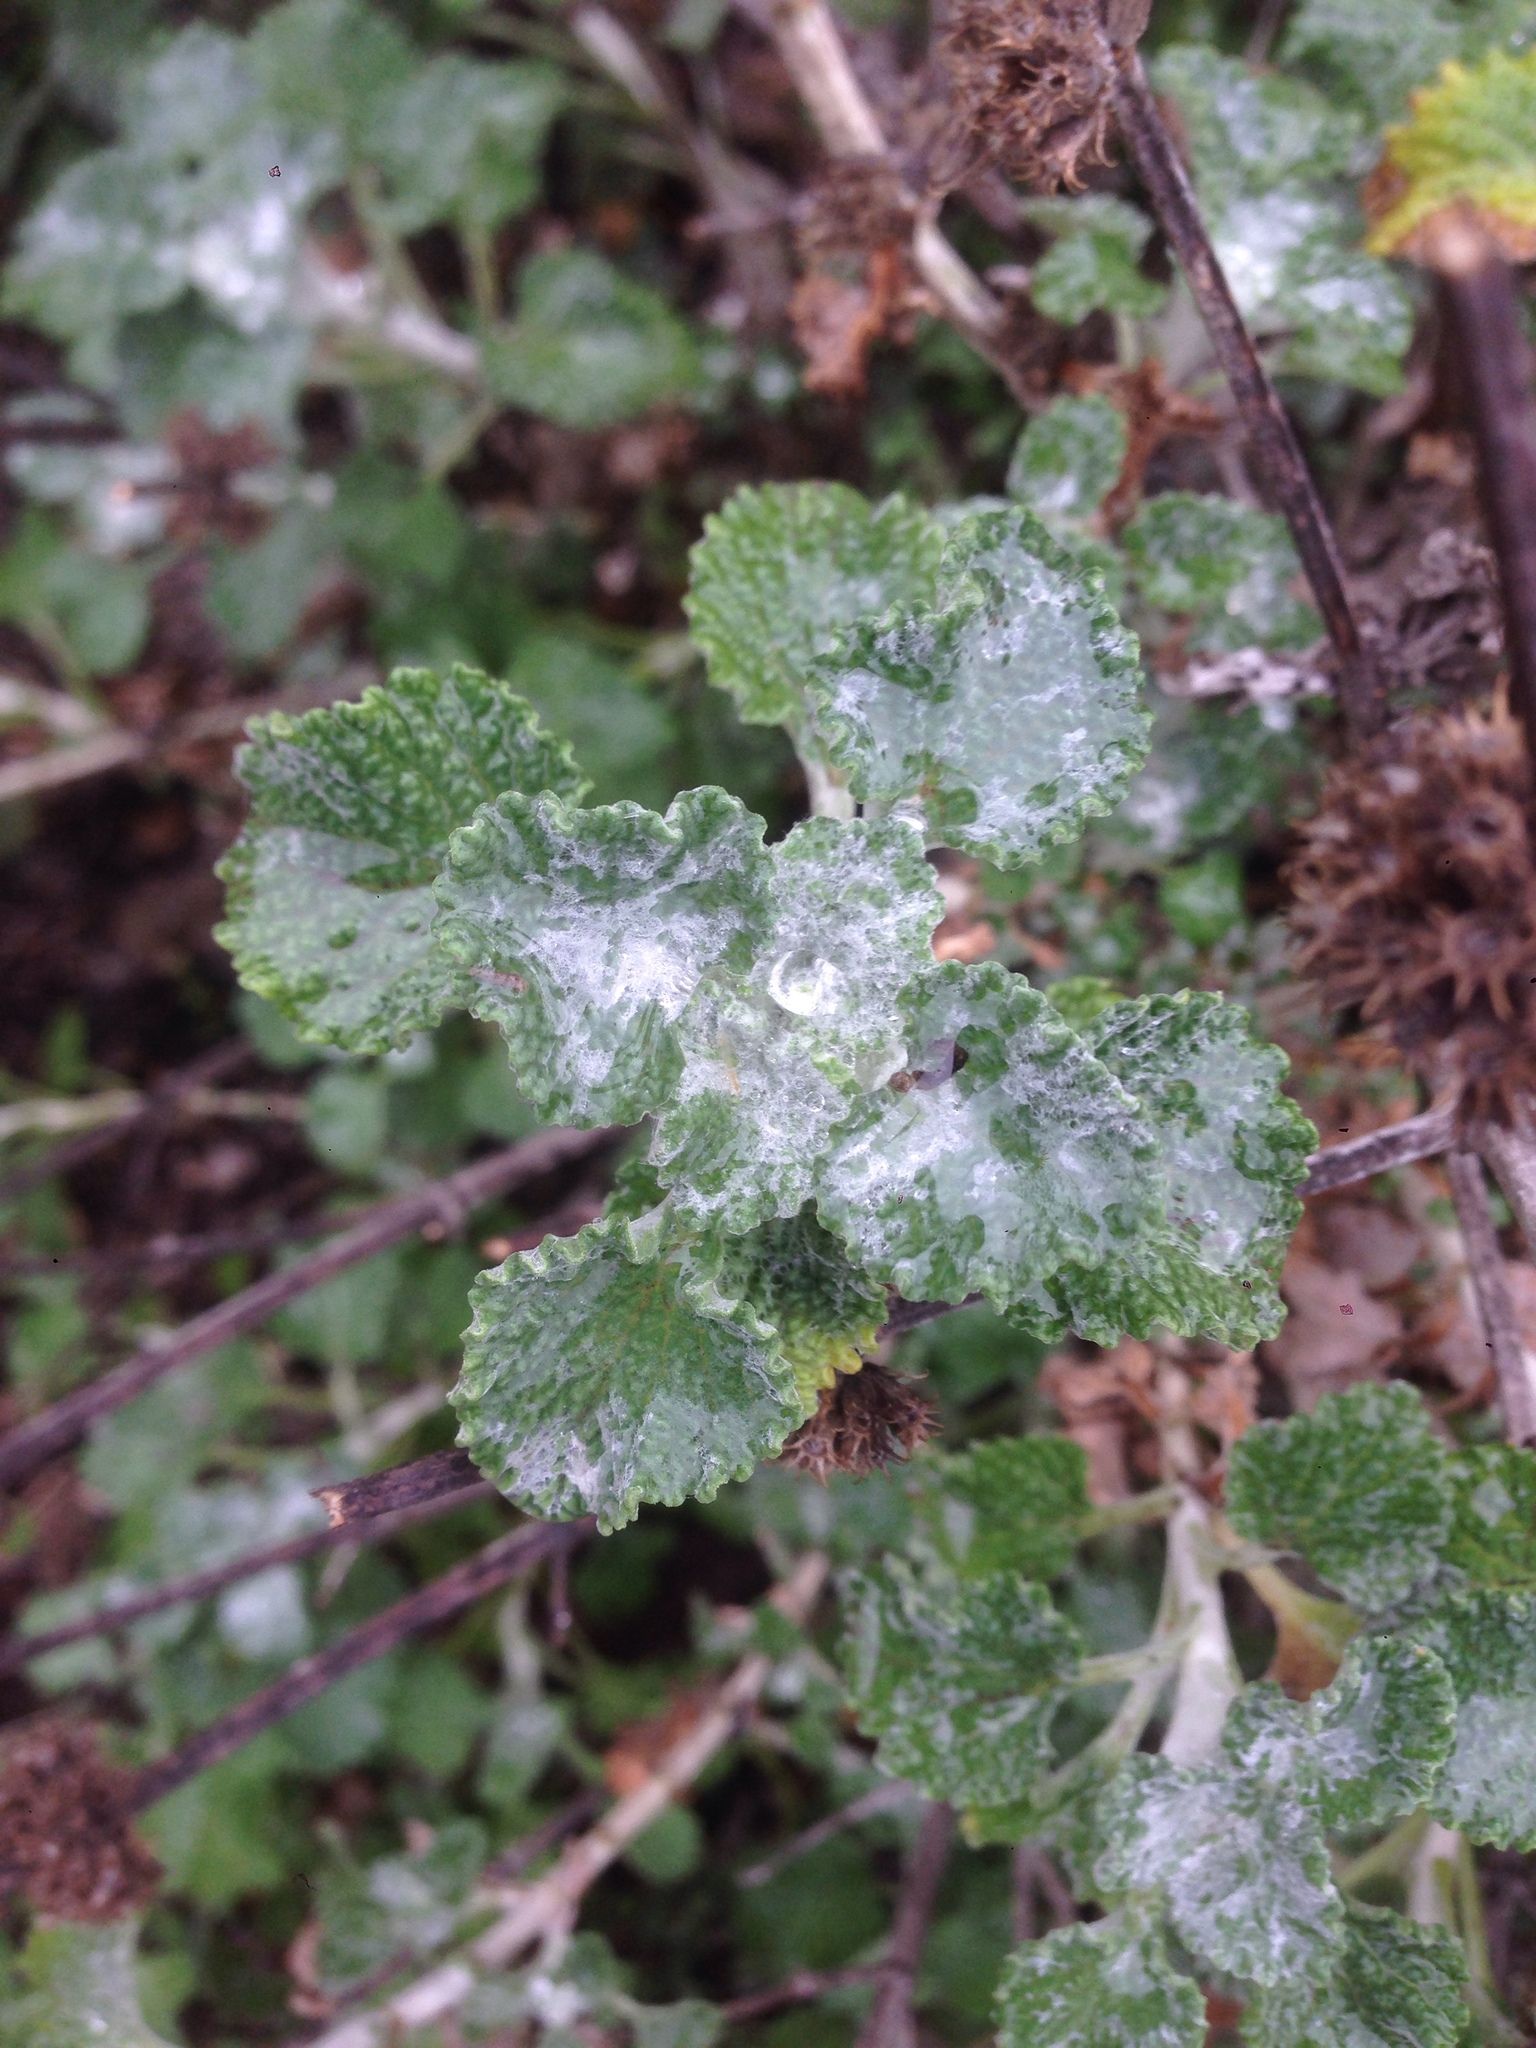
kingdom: Plantae
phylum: Tracheophyta
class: Magnoliopsida
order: Lamiales
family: Lamiaceae
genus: Marrubium
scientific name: Marrubium vulgare
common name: Horehound
